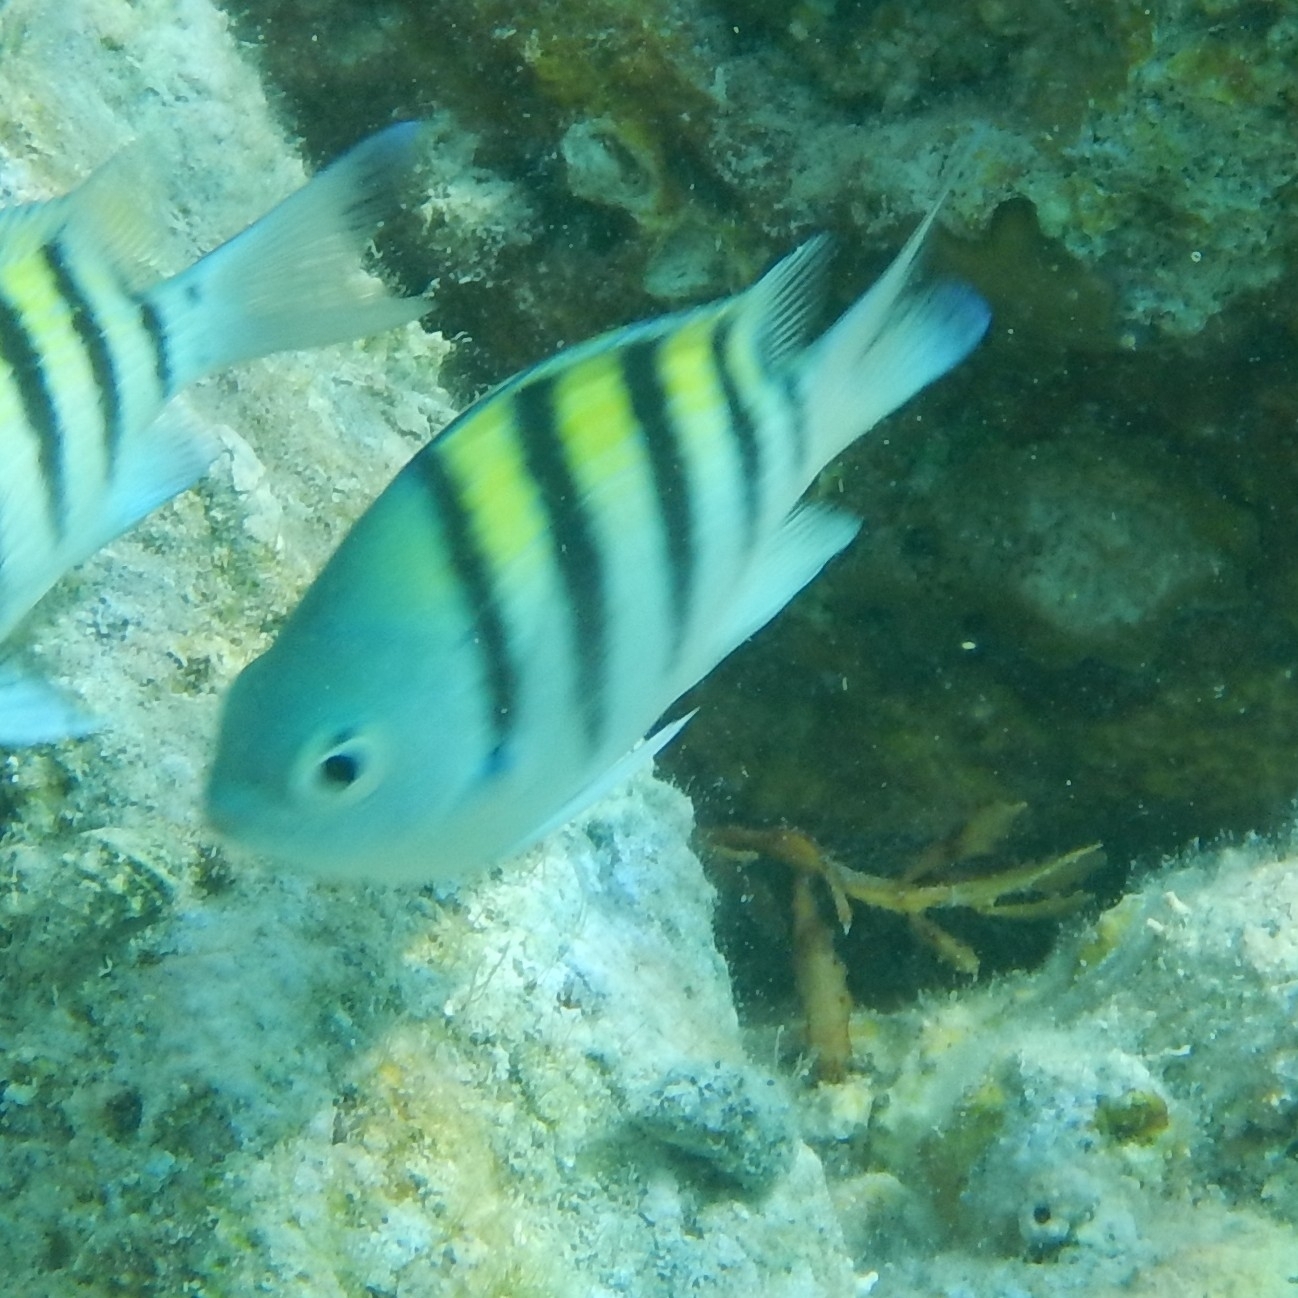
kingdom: Animalia
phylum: Chordata
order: Perciformes
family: Pomacentridae
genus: Abudefduf
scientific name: Abudefduf saxatilis
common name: Sergeant major
